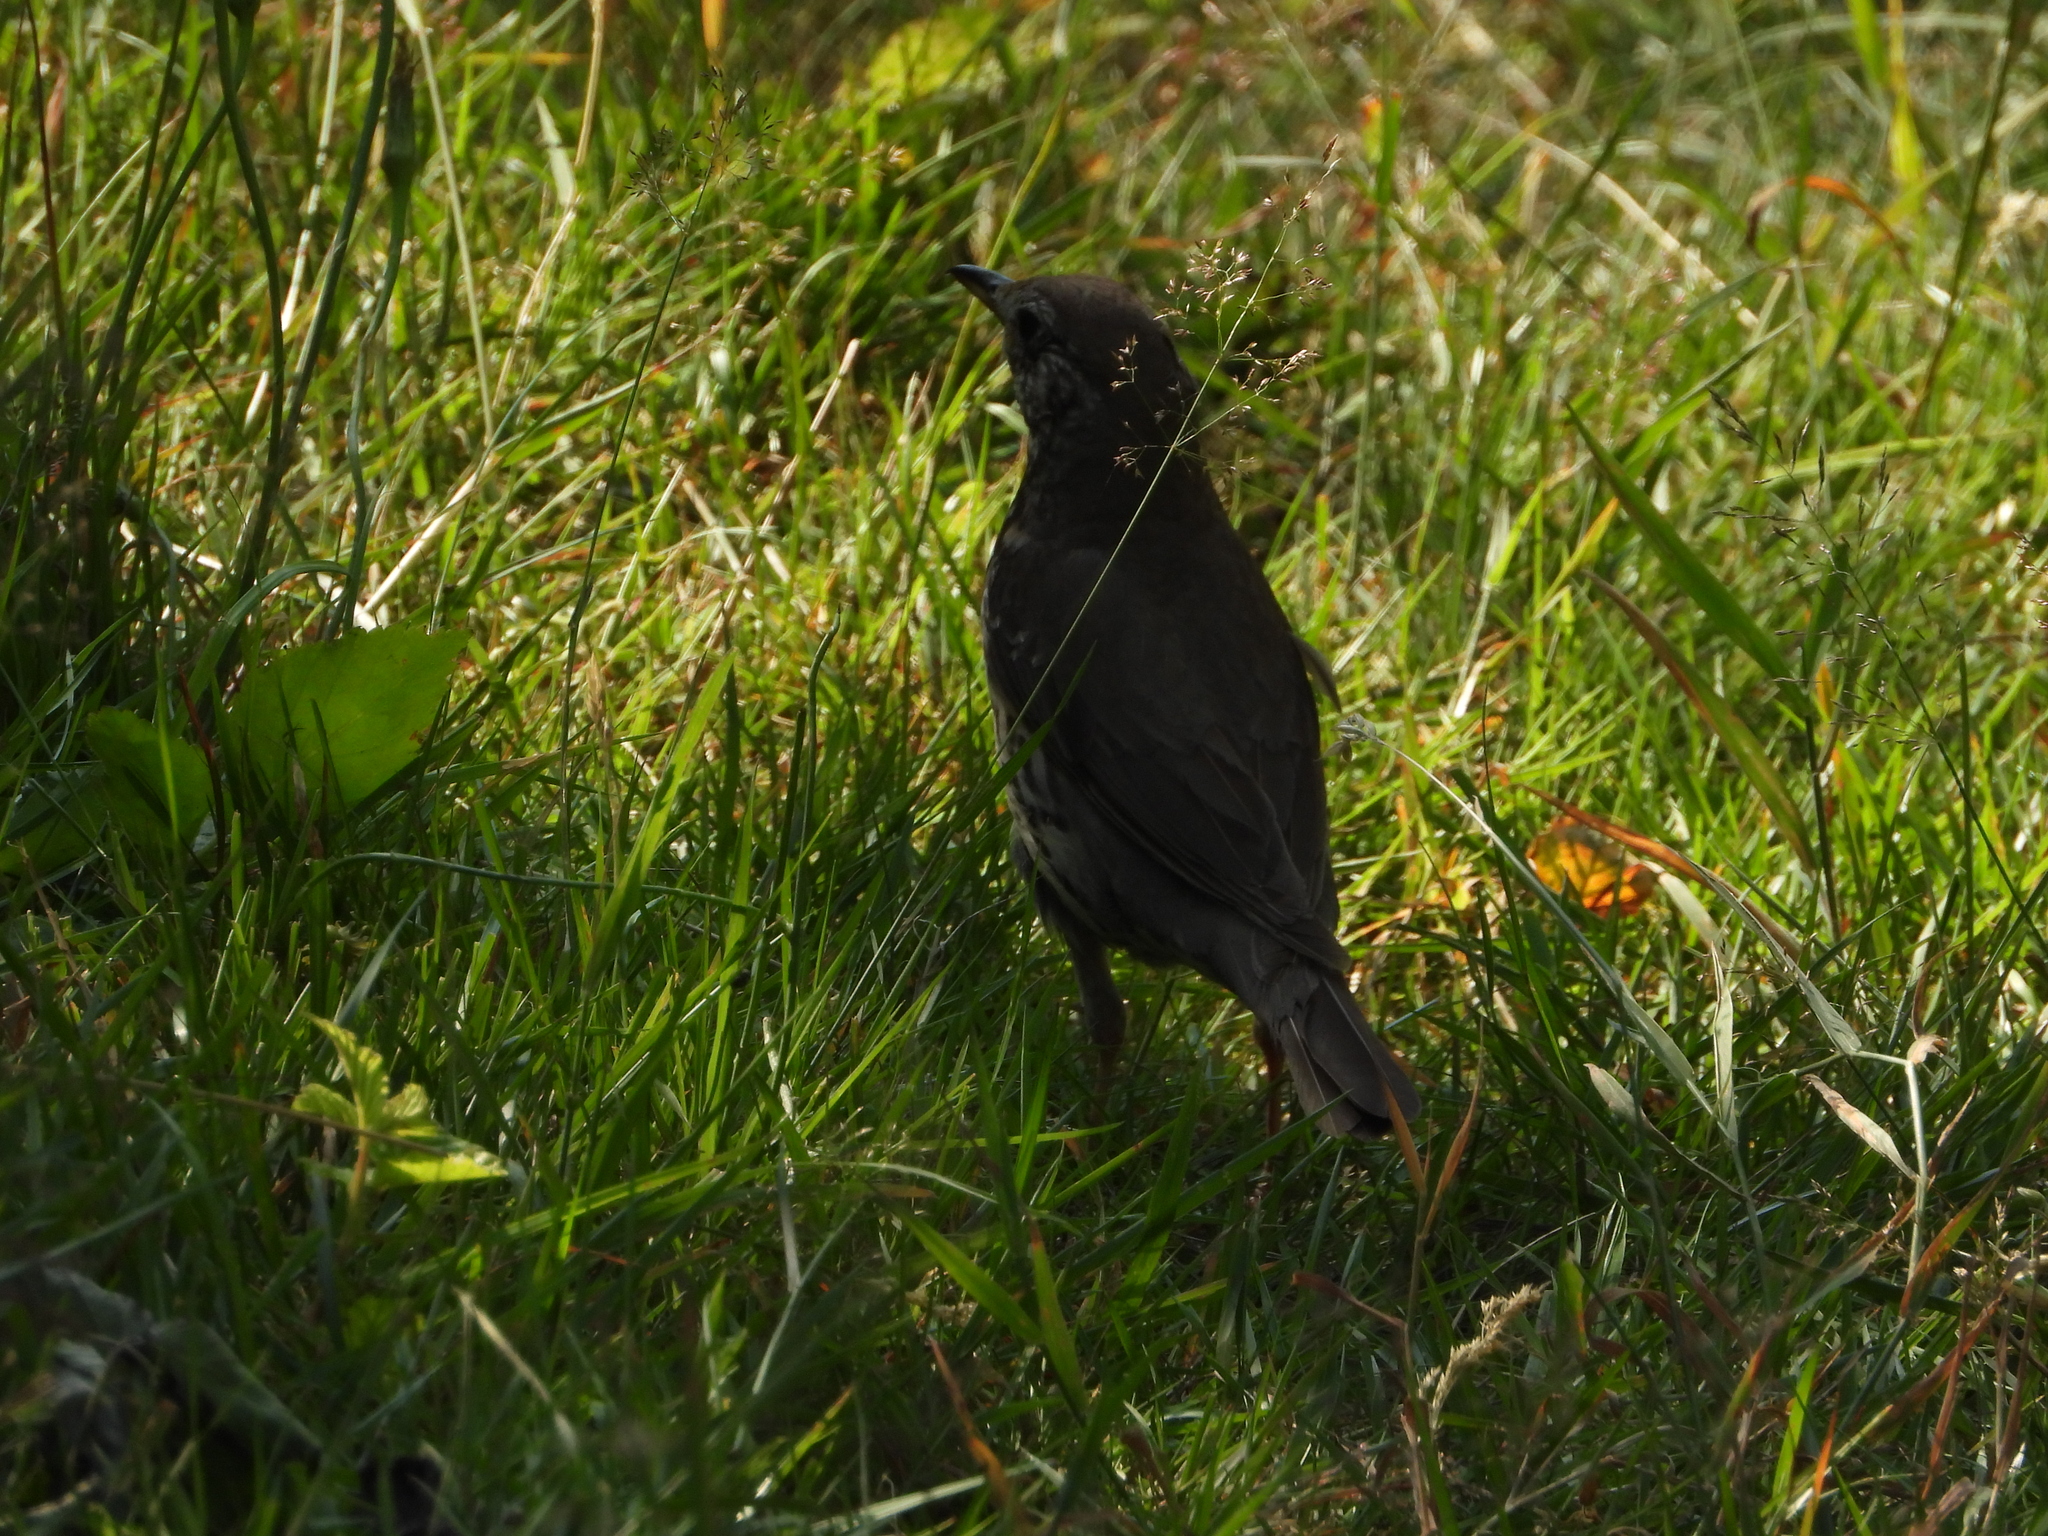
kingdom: Animalia
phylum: Chordata
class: Aves
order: Passeriformes
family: Turdidae
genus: Turdus
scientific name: Turdus philomelos
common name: Song thrush
